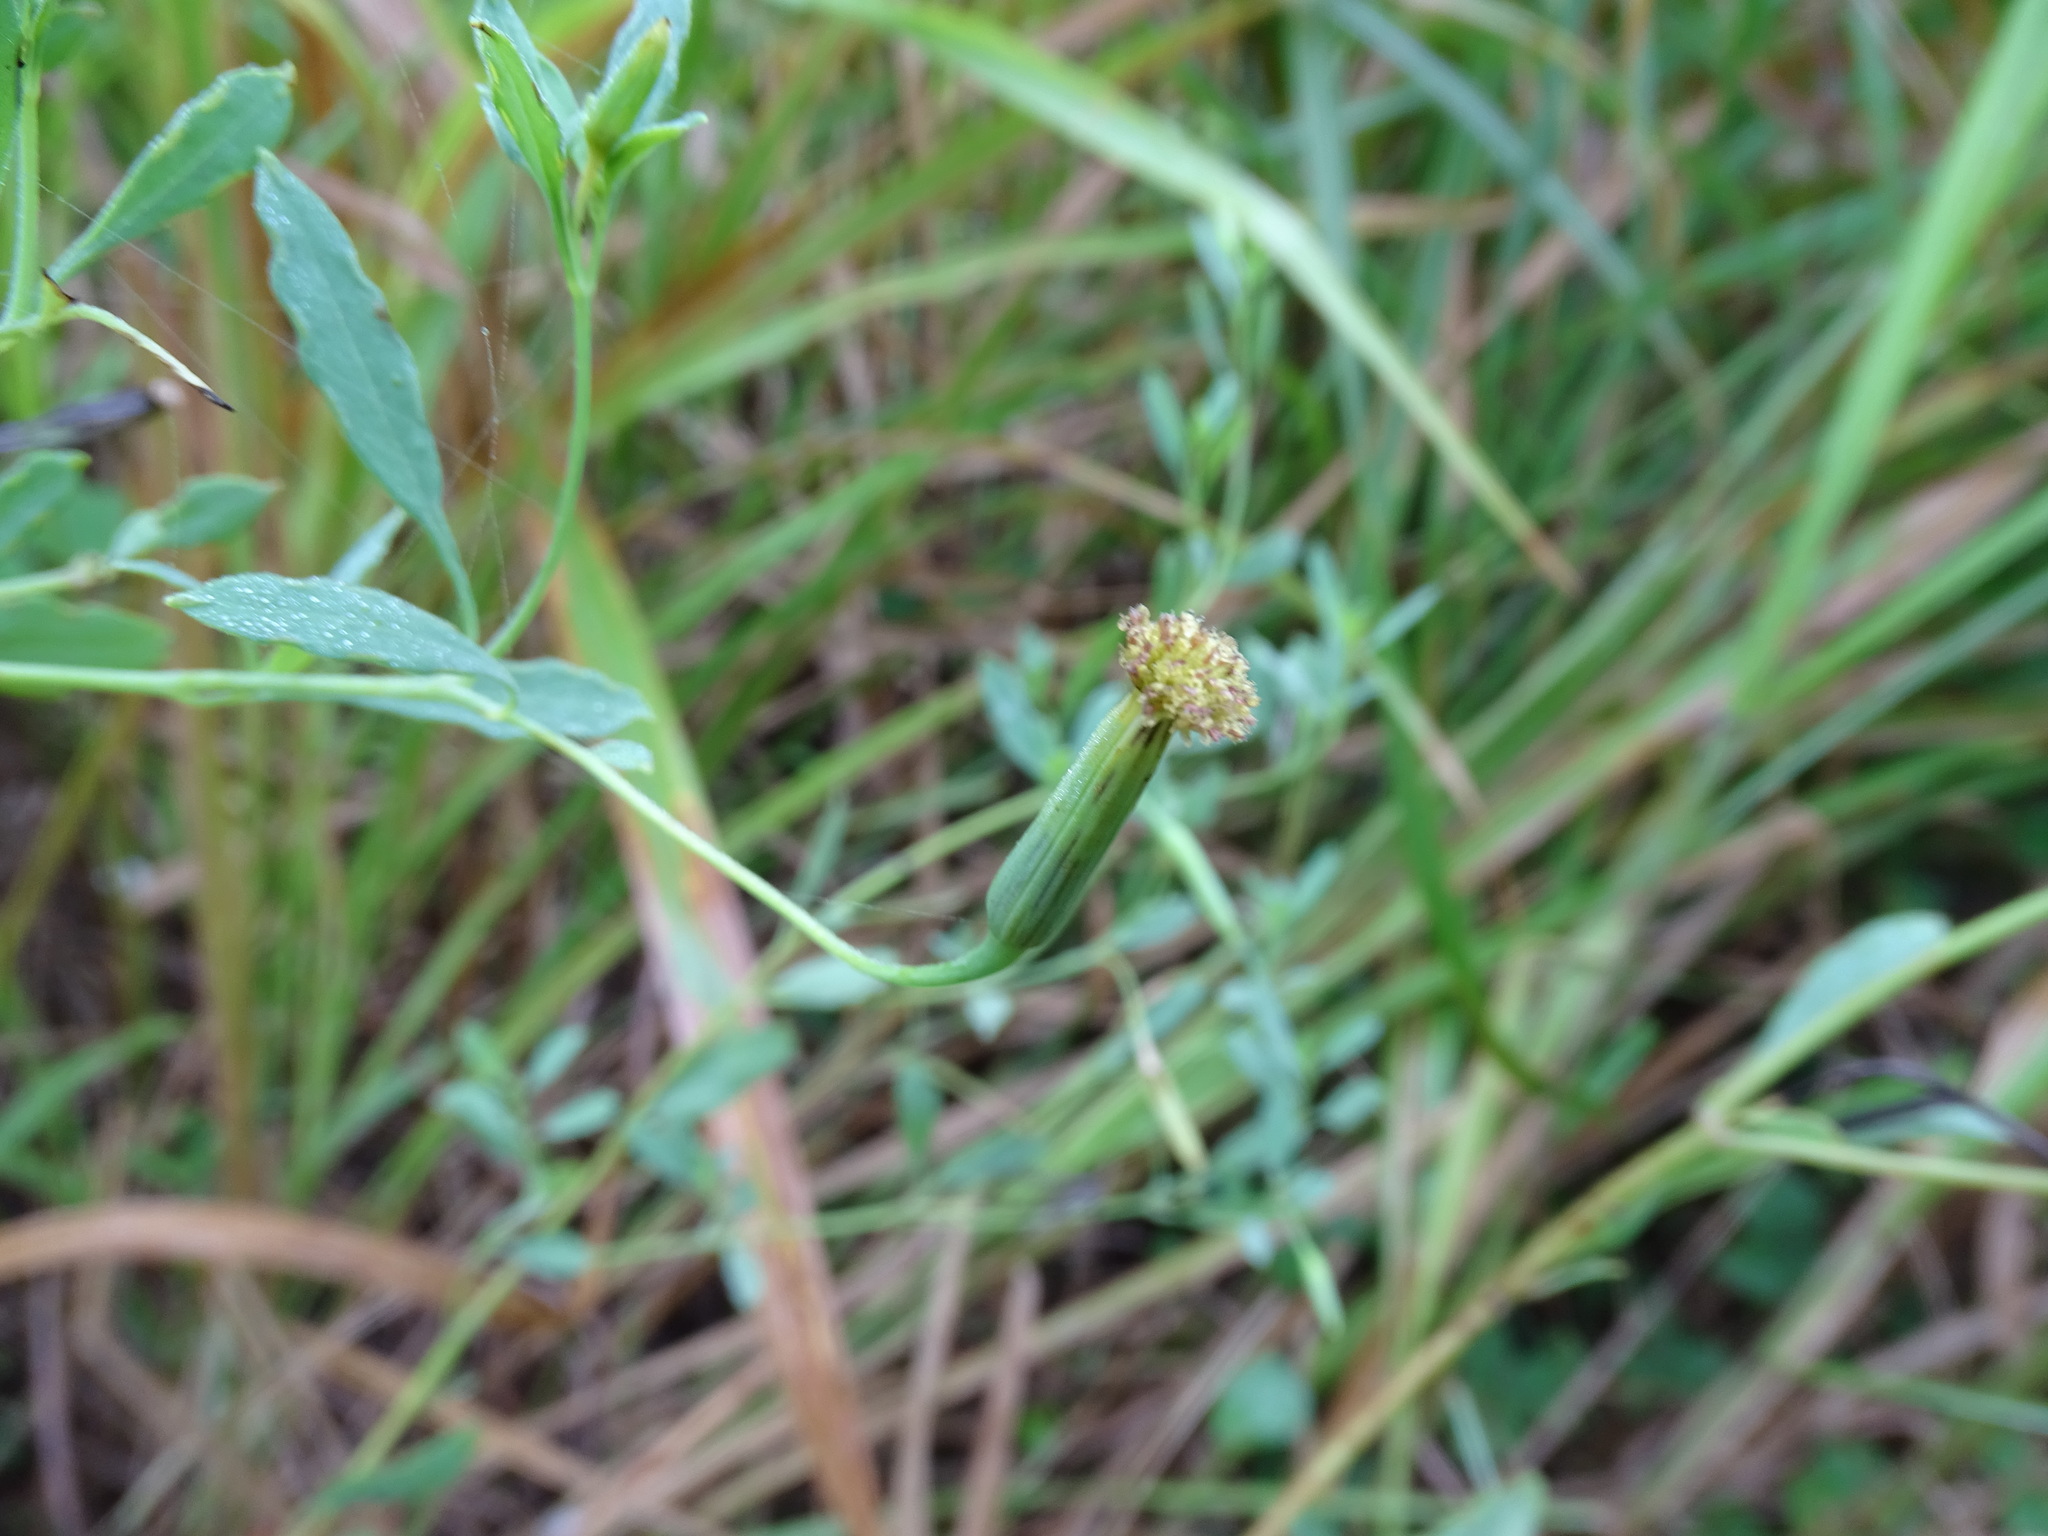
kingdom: Plantae
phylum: Tracheophyta
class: Magnoliopsida
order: Asterales
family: Asteraceae
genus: Porophyllum
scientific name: Porophyllum punctatum
